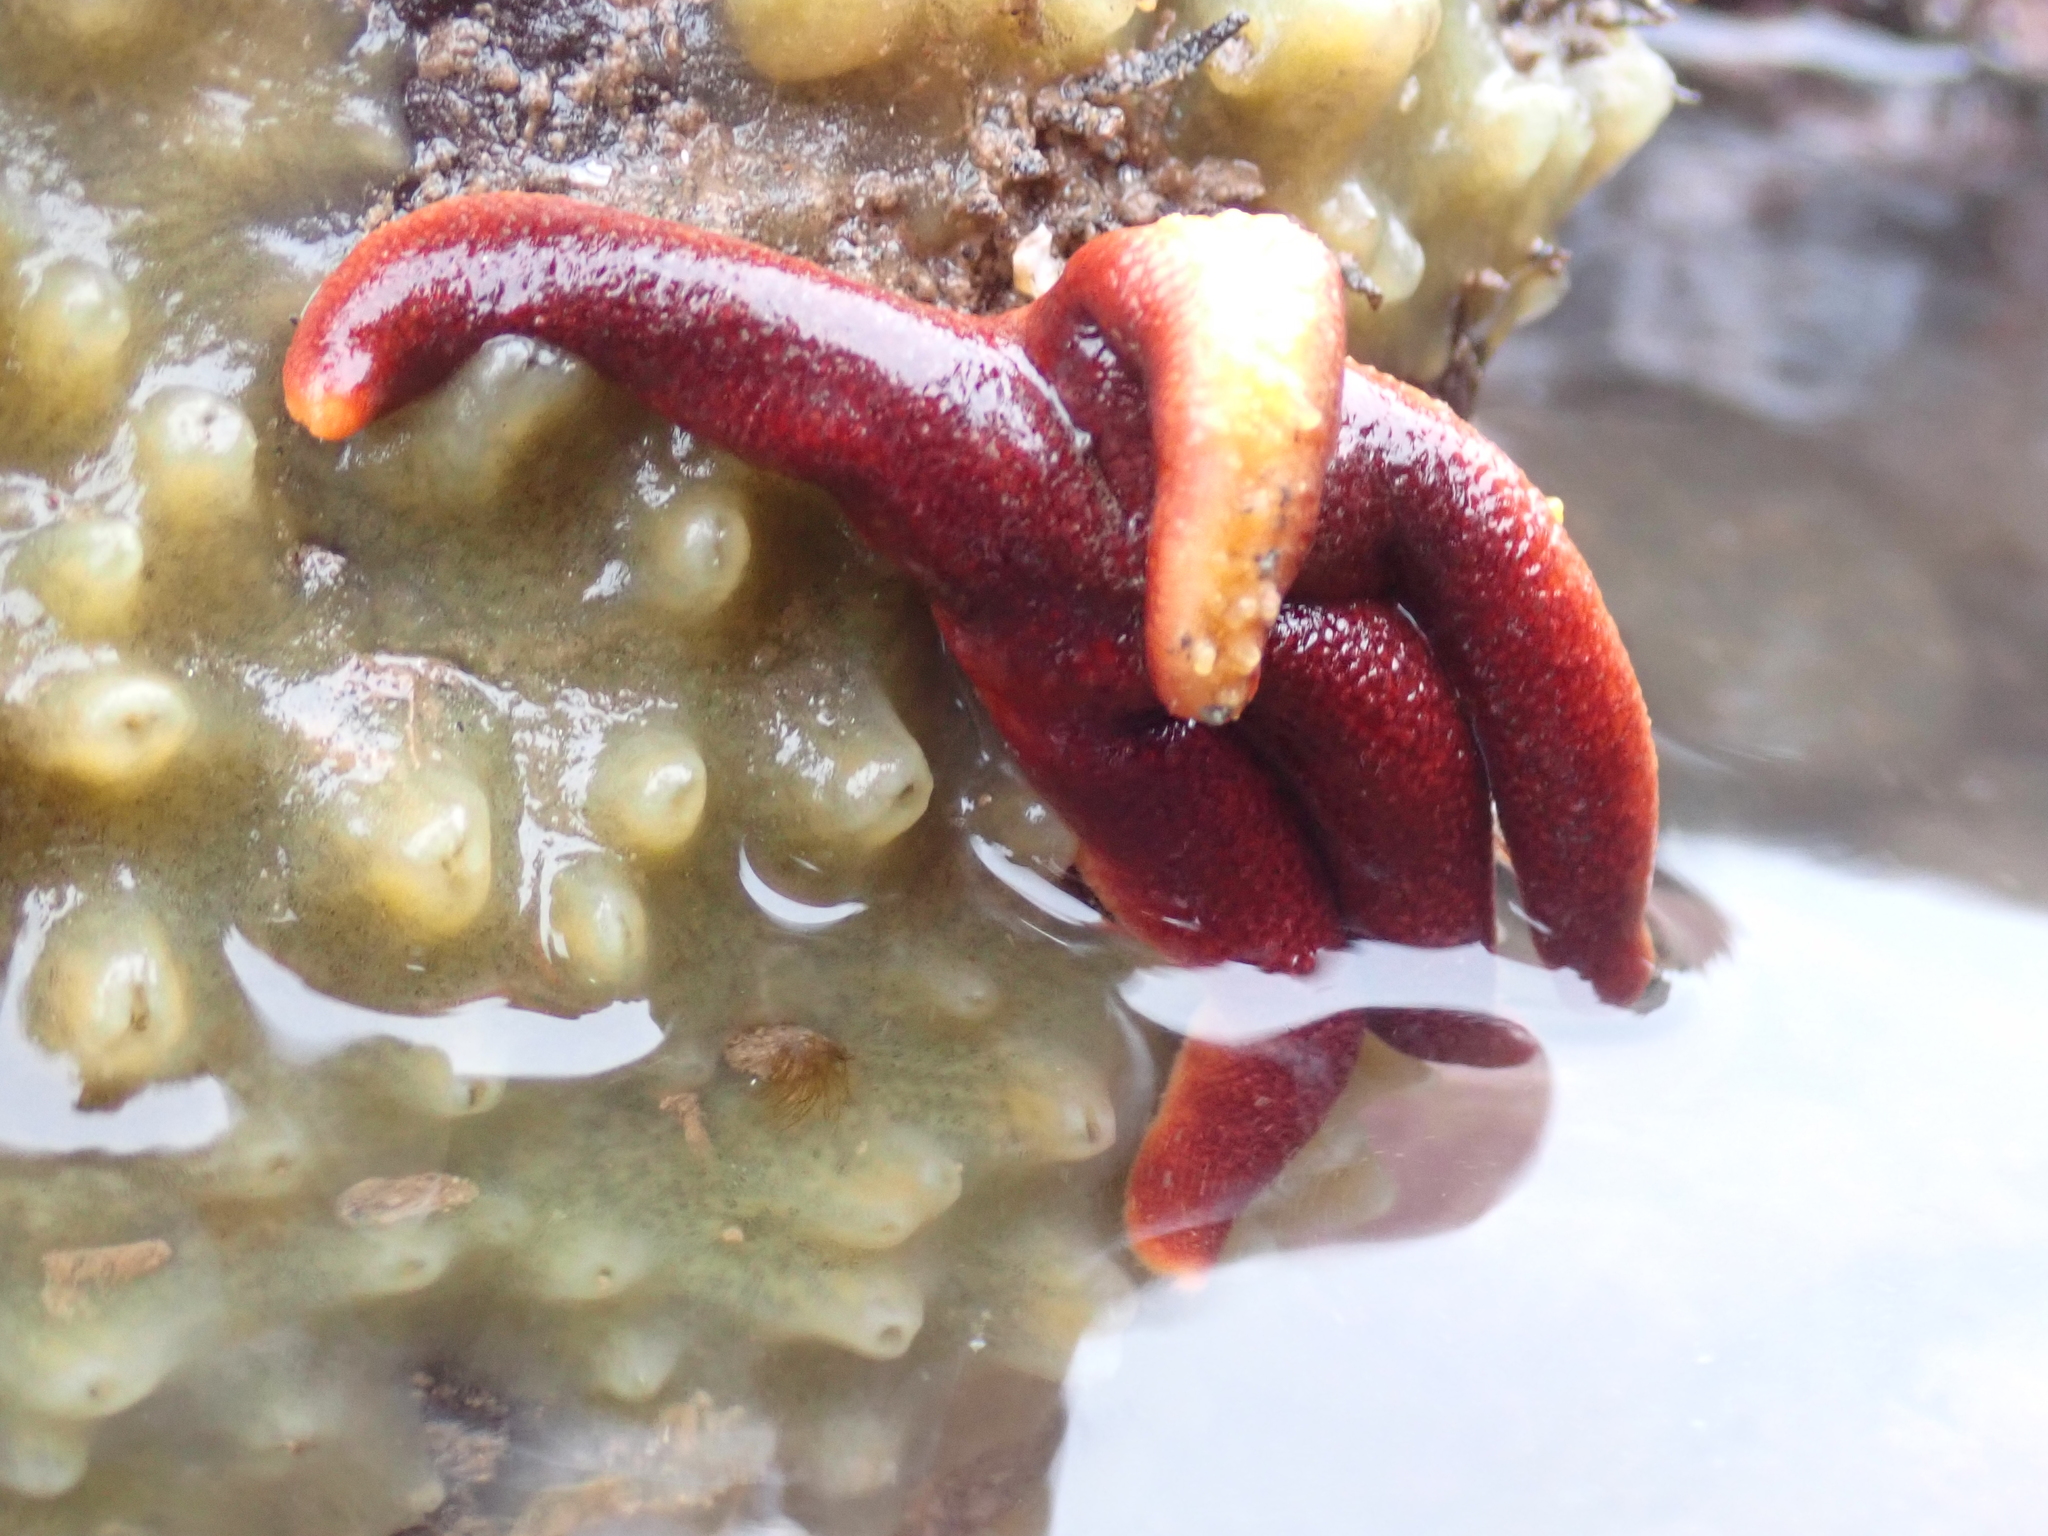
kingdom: Animalia
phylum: Echinodermata
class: Asteroidea
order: Spinulosida
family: Echinasteridae
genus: Henricia
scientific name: Henricia sanguinolenta
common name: Blood star
